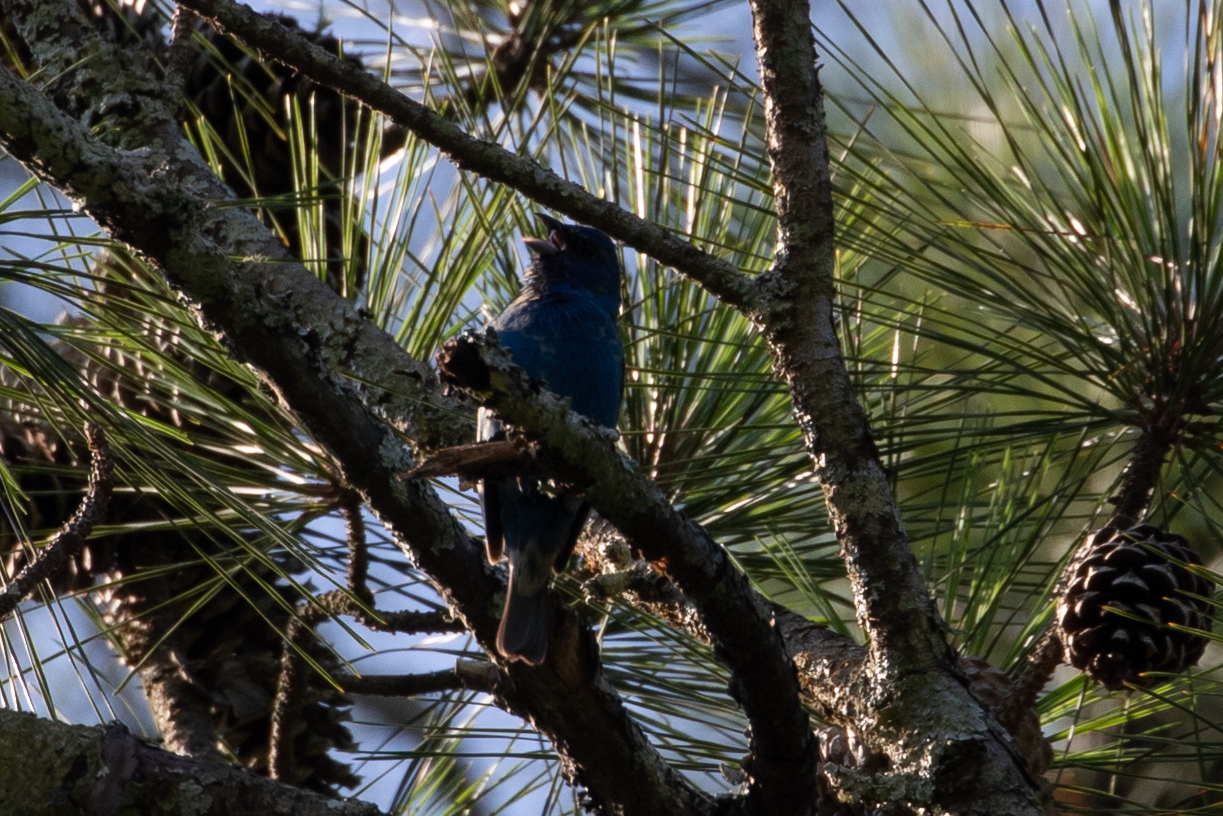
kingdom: Animalia
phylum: Chordata
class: Aves
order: Passeriformes
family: Cardinalidae
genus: Passerina
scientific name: Passerina cyanea
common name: Indigo bunting
